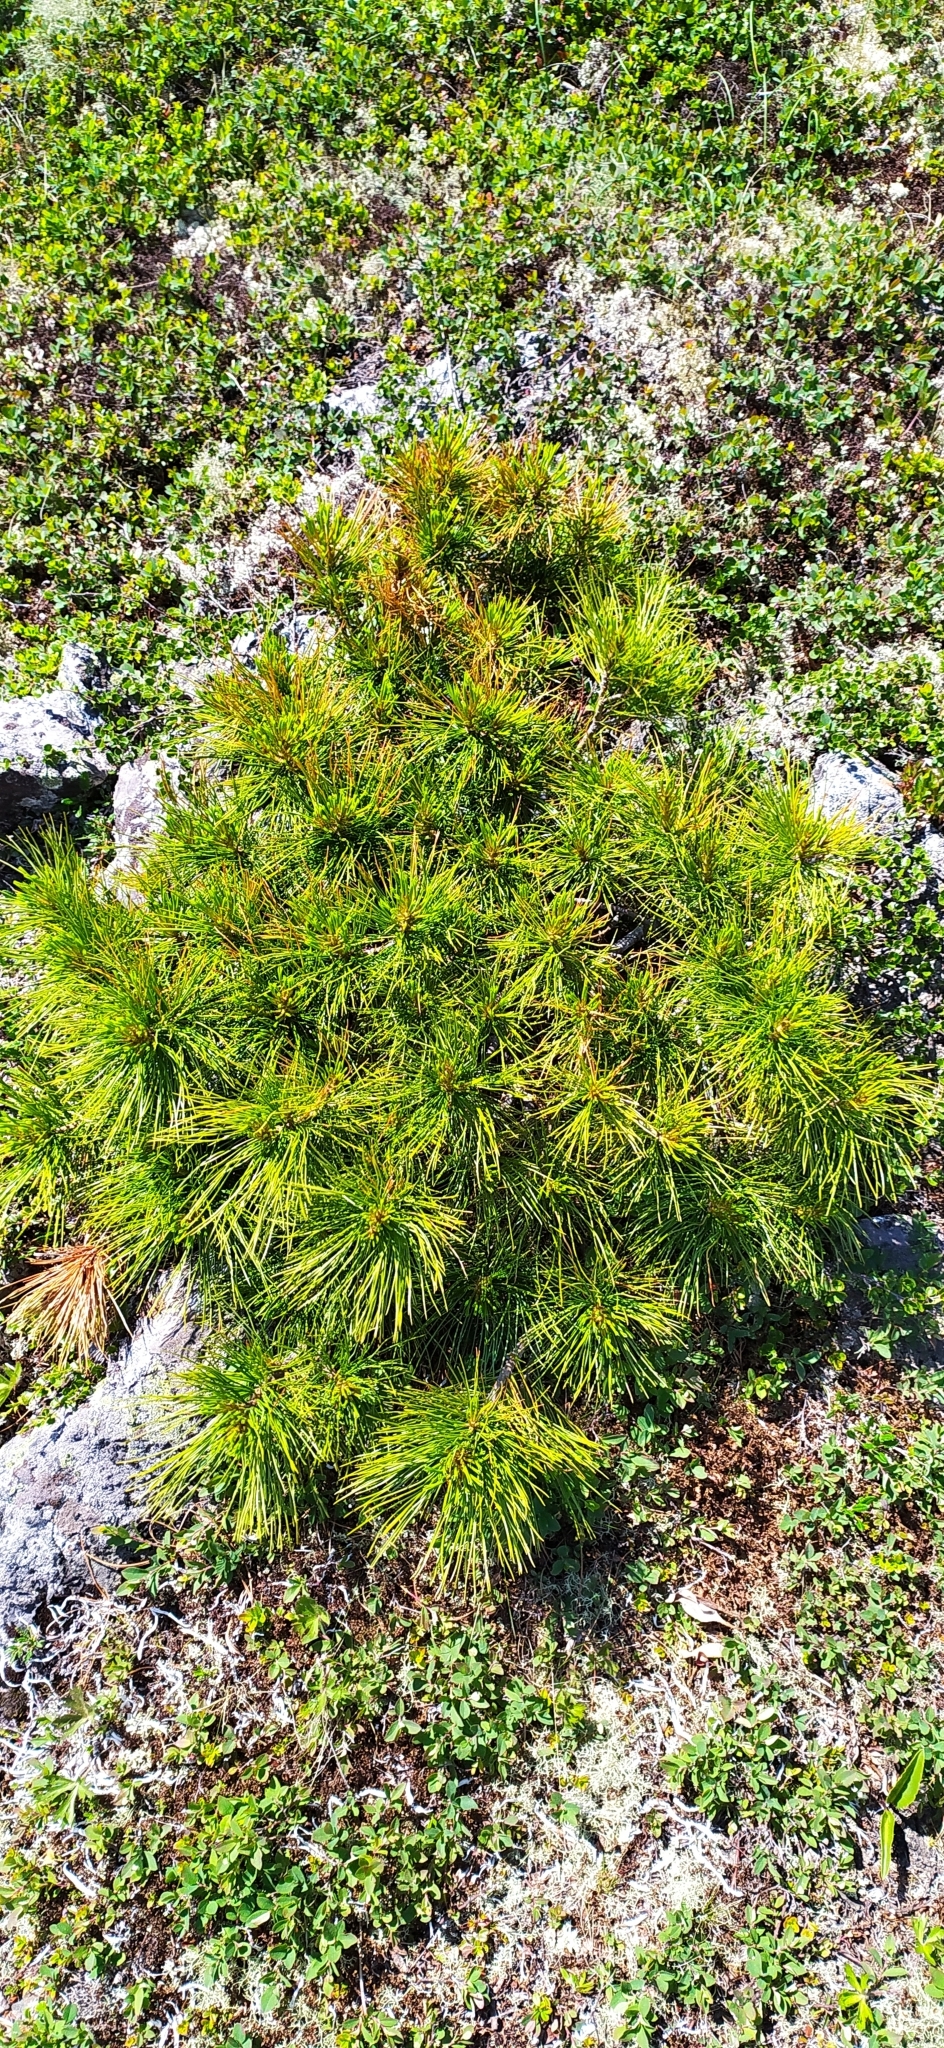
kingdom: Plantae
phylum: Tracheophyta
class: Pinopsida
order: Pinales
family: Pinaceae
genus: Pinus
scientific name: Pinus sibirica
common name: Siberian pine
